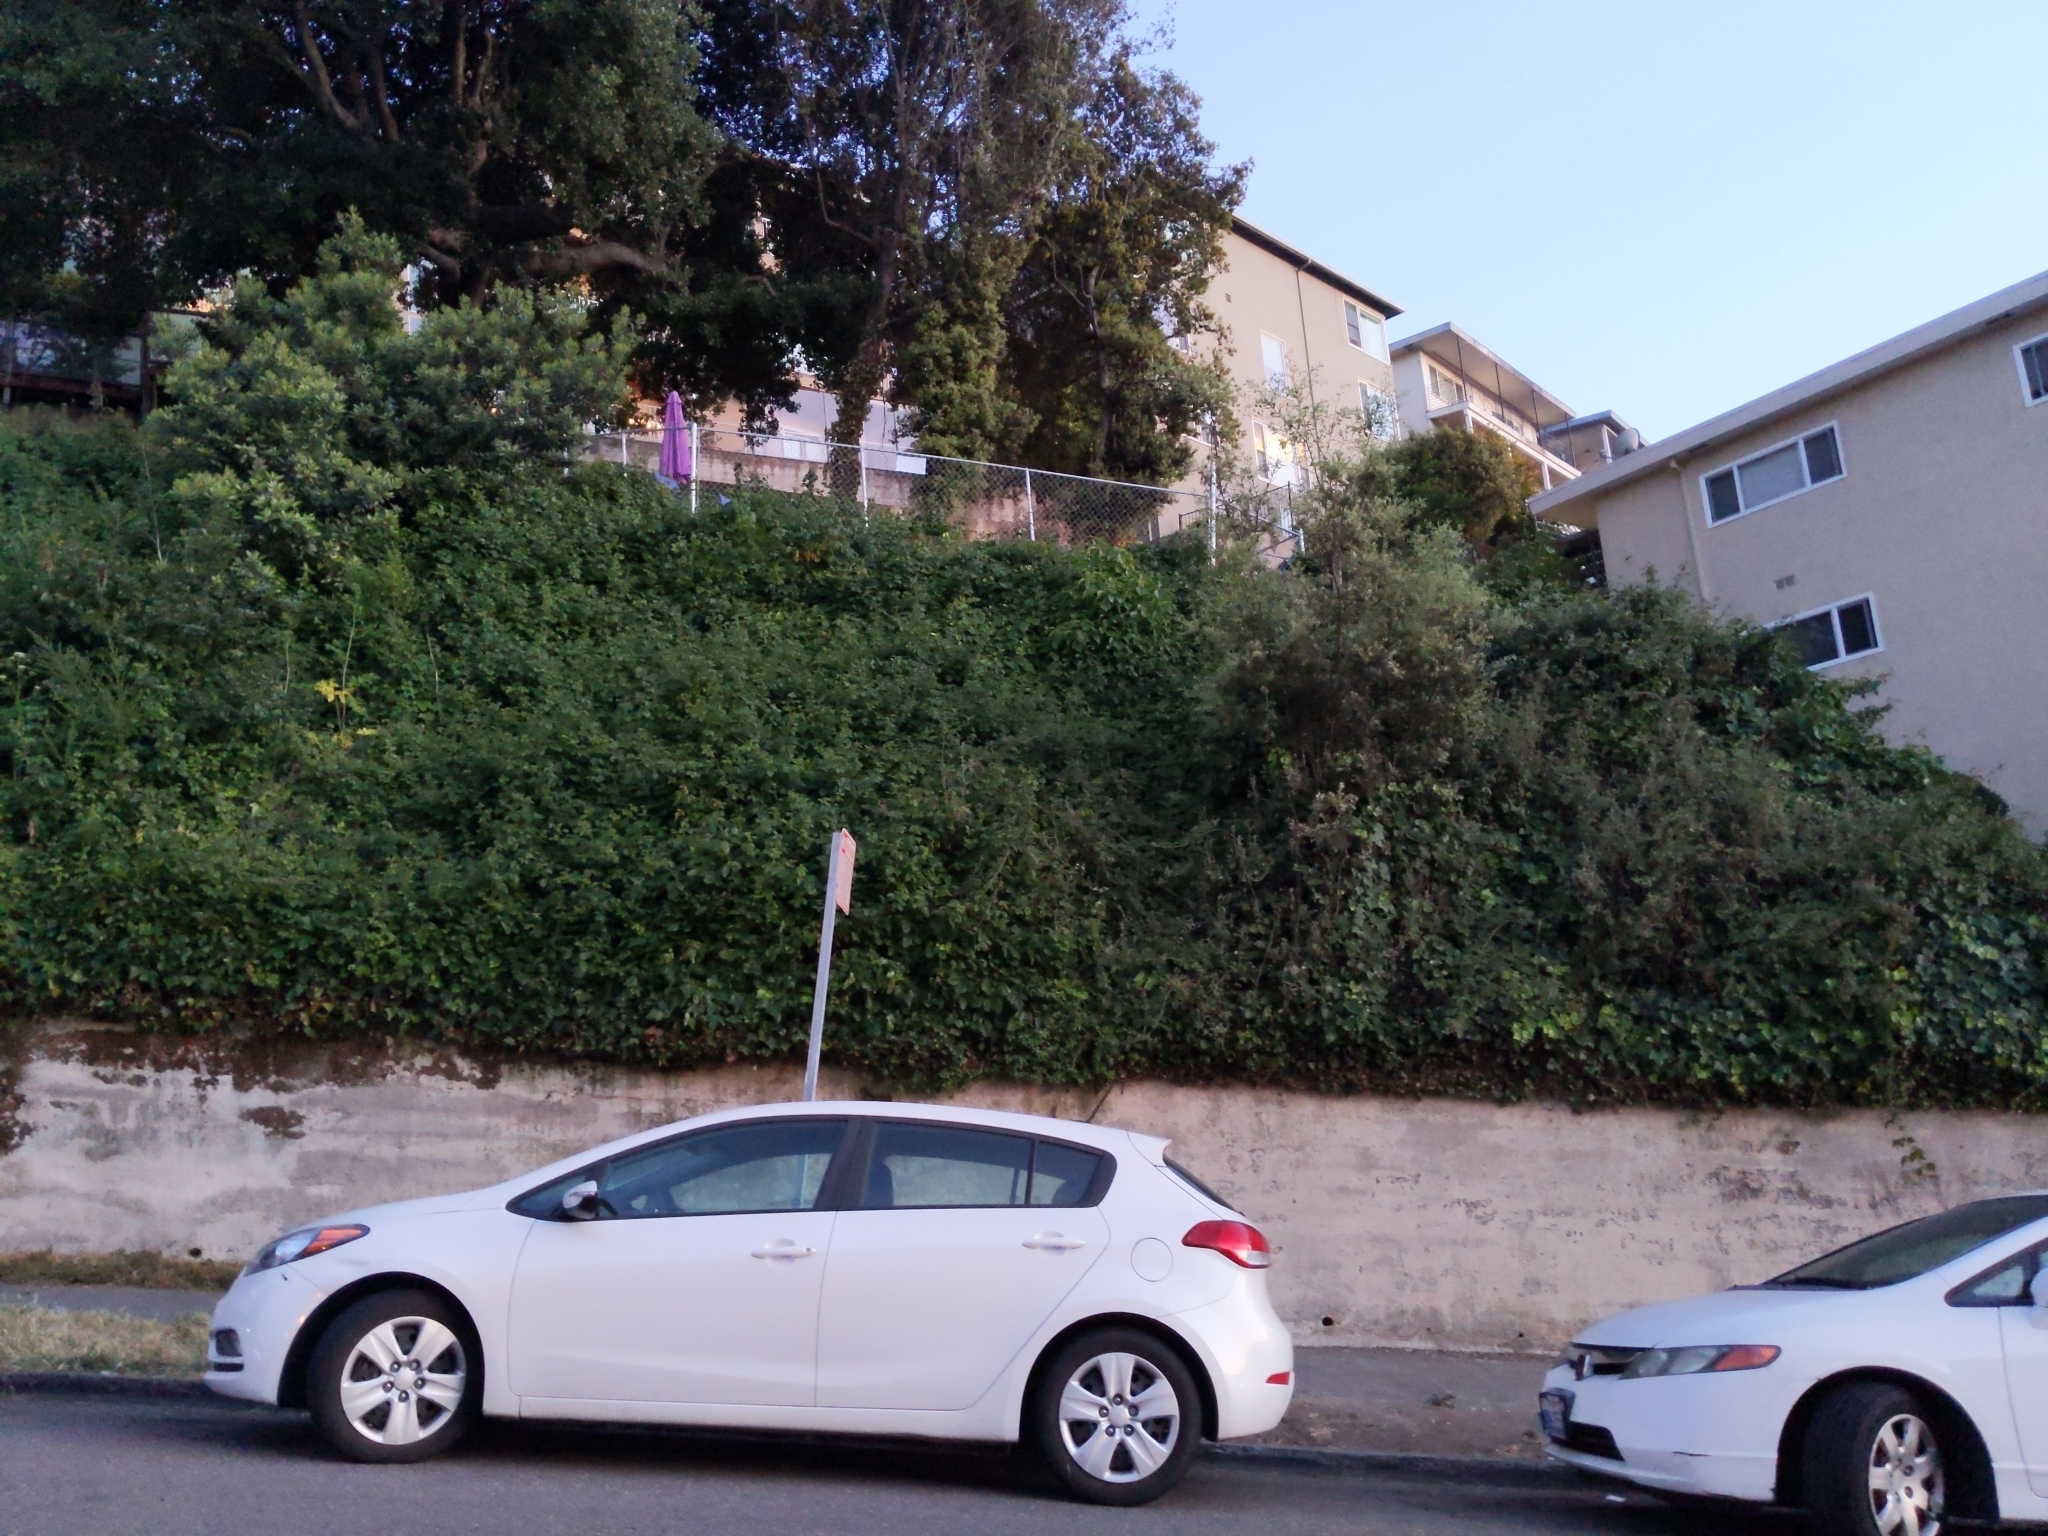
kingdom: Plantae
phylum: Tracheophyta
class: Magnoliopsida
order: Sapindales
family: Anacardiaceae
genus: Toxicodendron
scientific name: Toxicodendron diversilobum
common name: Pacific poison-oak
